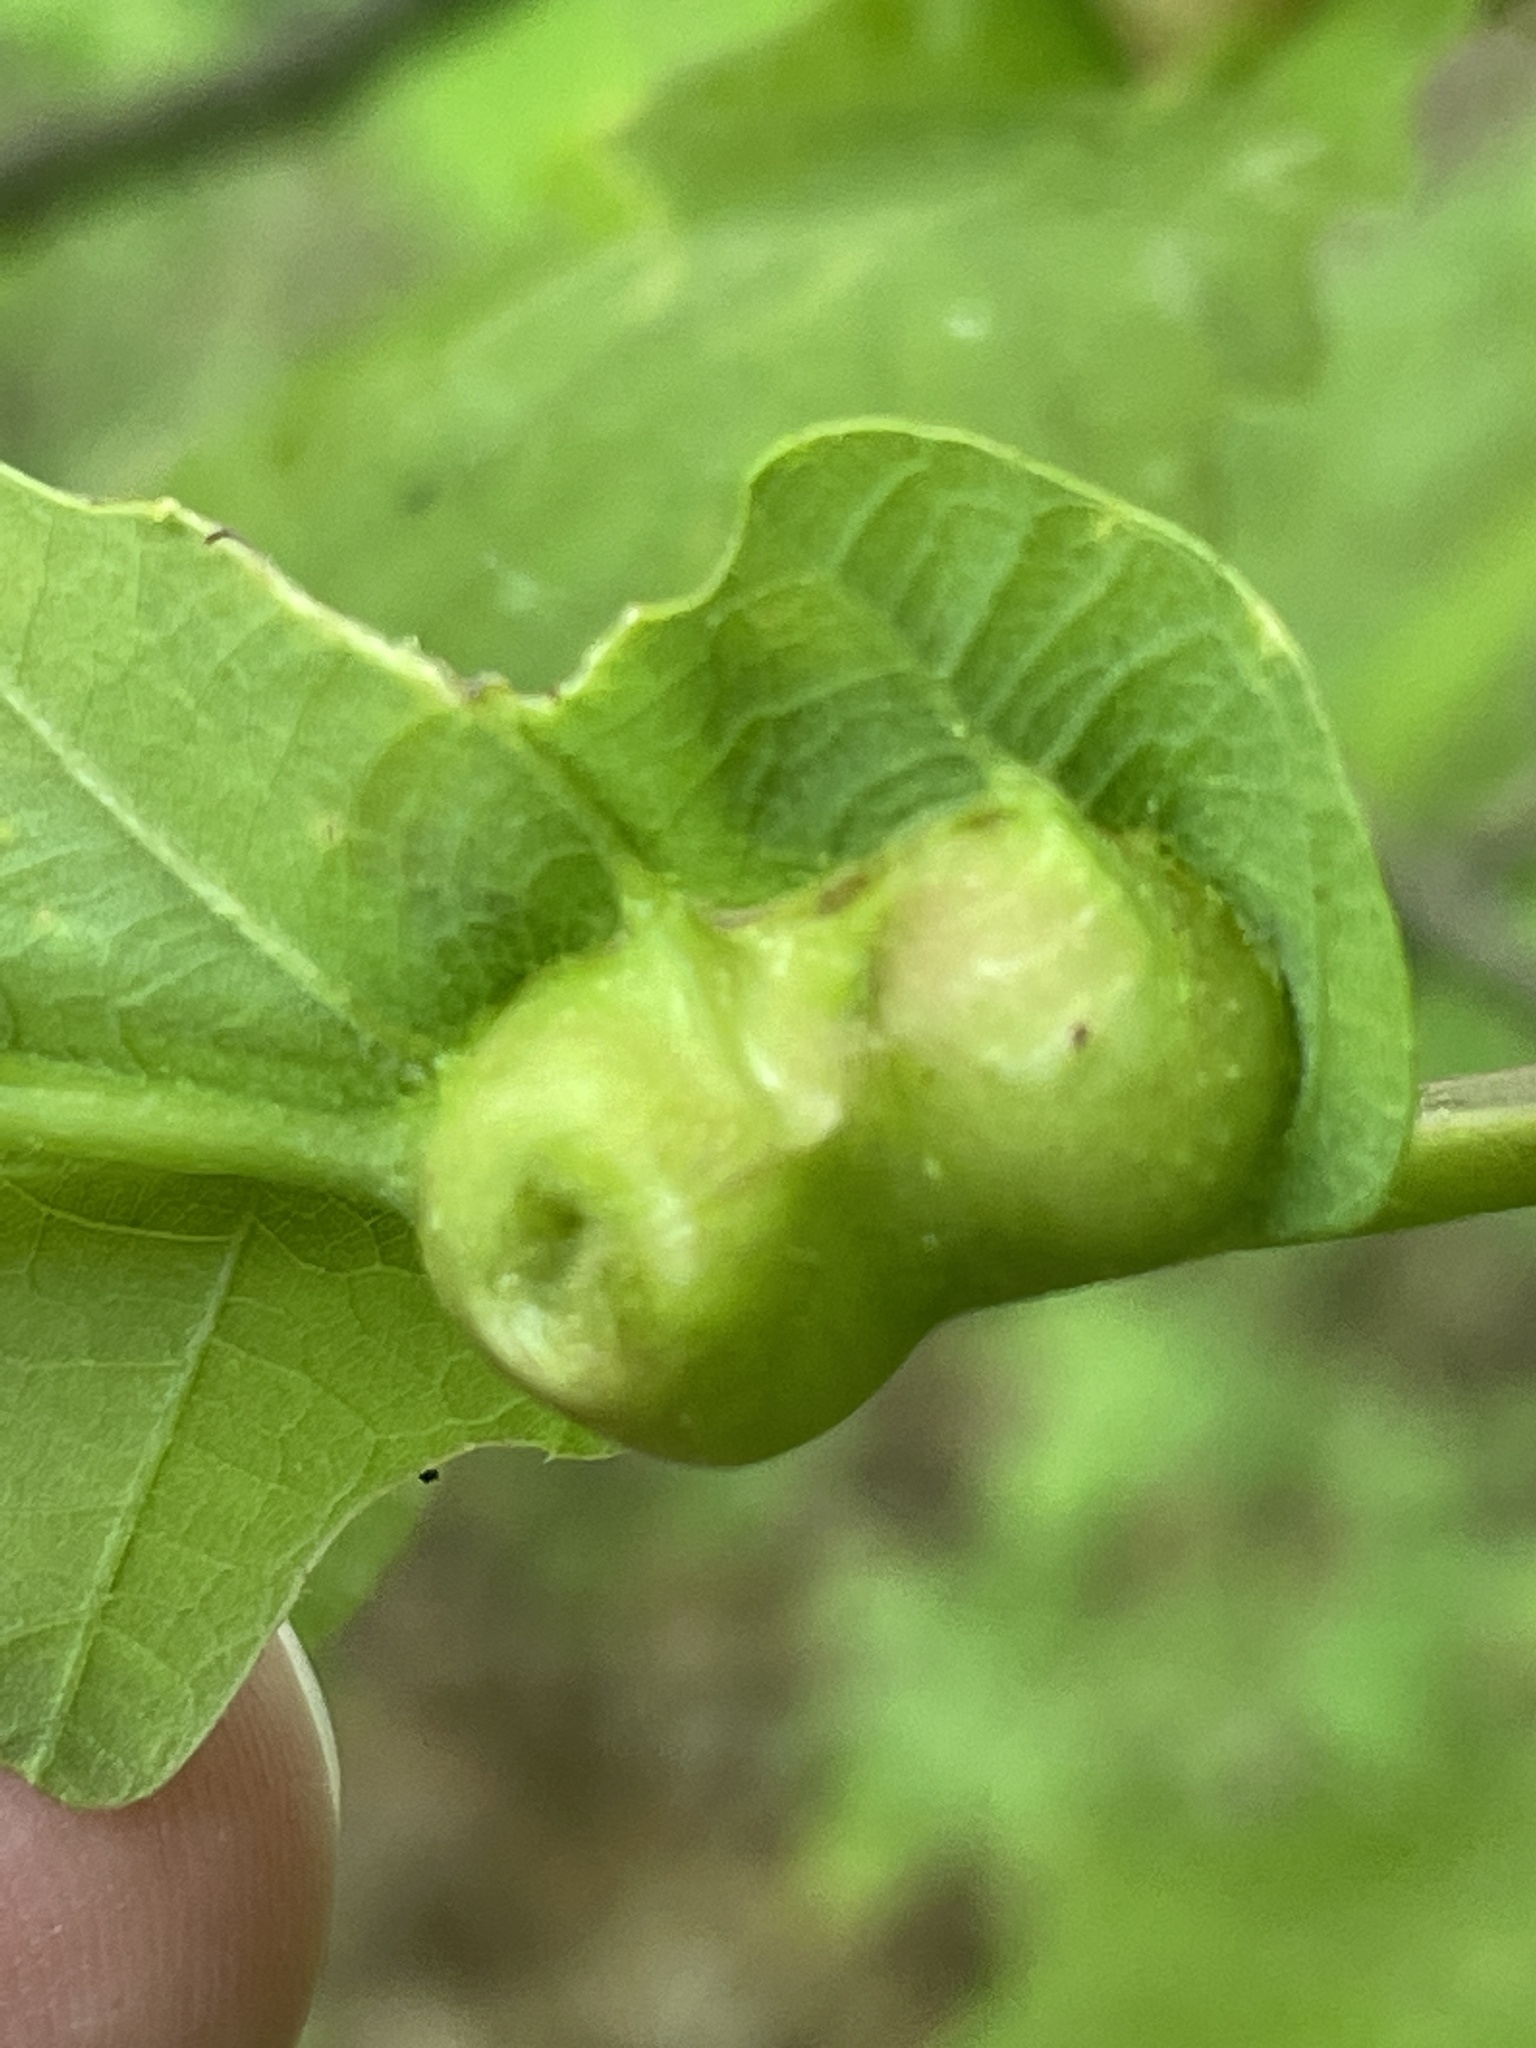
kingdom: Animalia
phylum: Arthropoda
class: Insecta
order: Hymenoptera
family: Cynipidae
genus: Andricus
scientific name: Andricus
